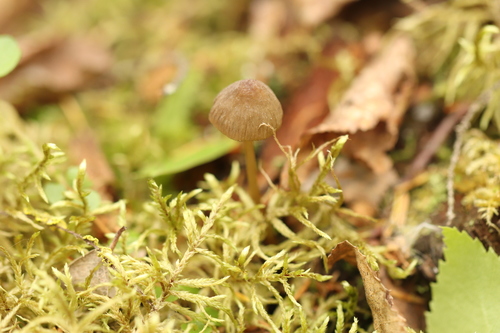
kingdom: Fungi
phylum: Basidiomycota
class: Agaricomycetes
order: Agaricales
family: Mycenaceae
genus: Mycena
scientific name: Mycena viridimarginata
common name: Olive edge bonnet
